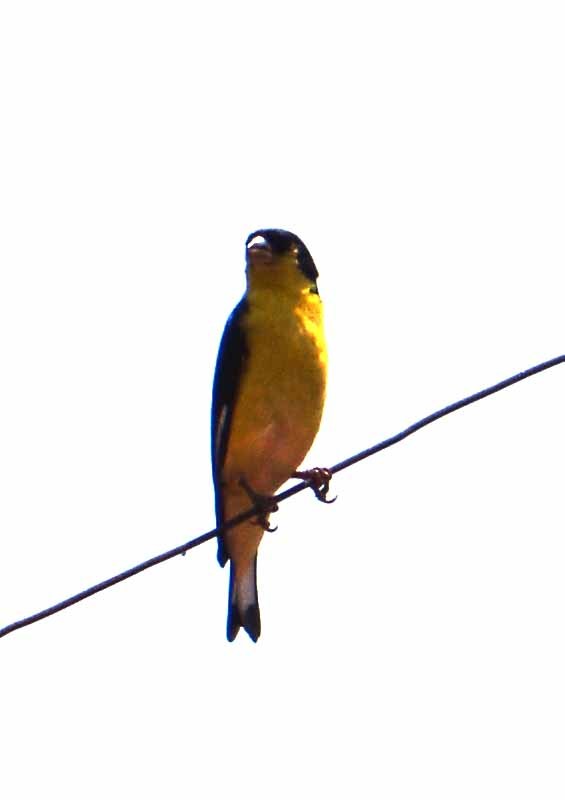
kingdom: Animalia
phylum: Chordata
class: Aves
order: Passeriformes
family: Fringillidae
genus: Spinus
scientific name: Spinus psaltria
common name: Lesser goldfinch
